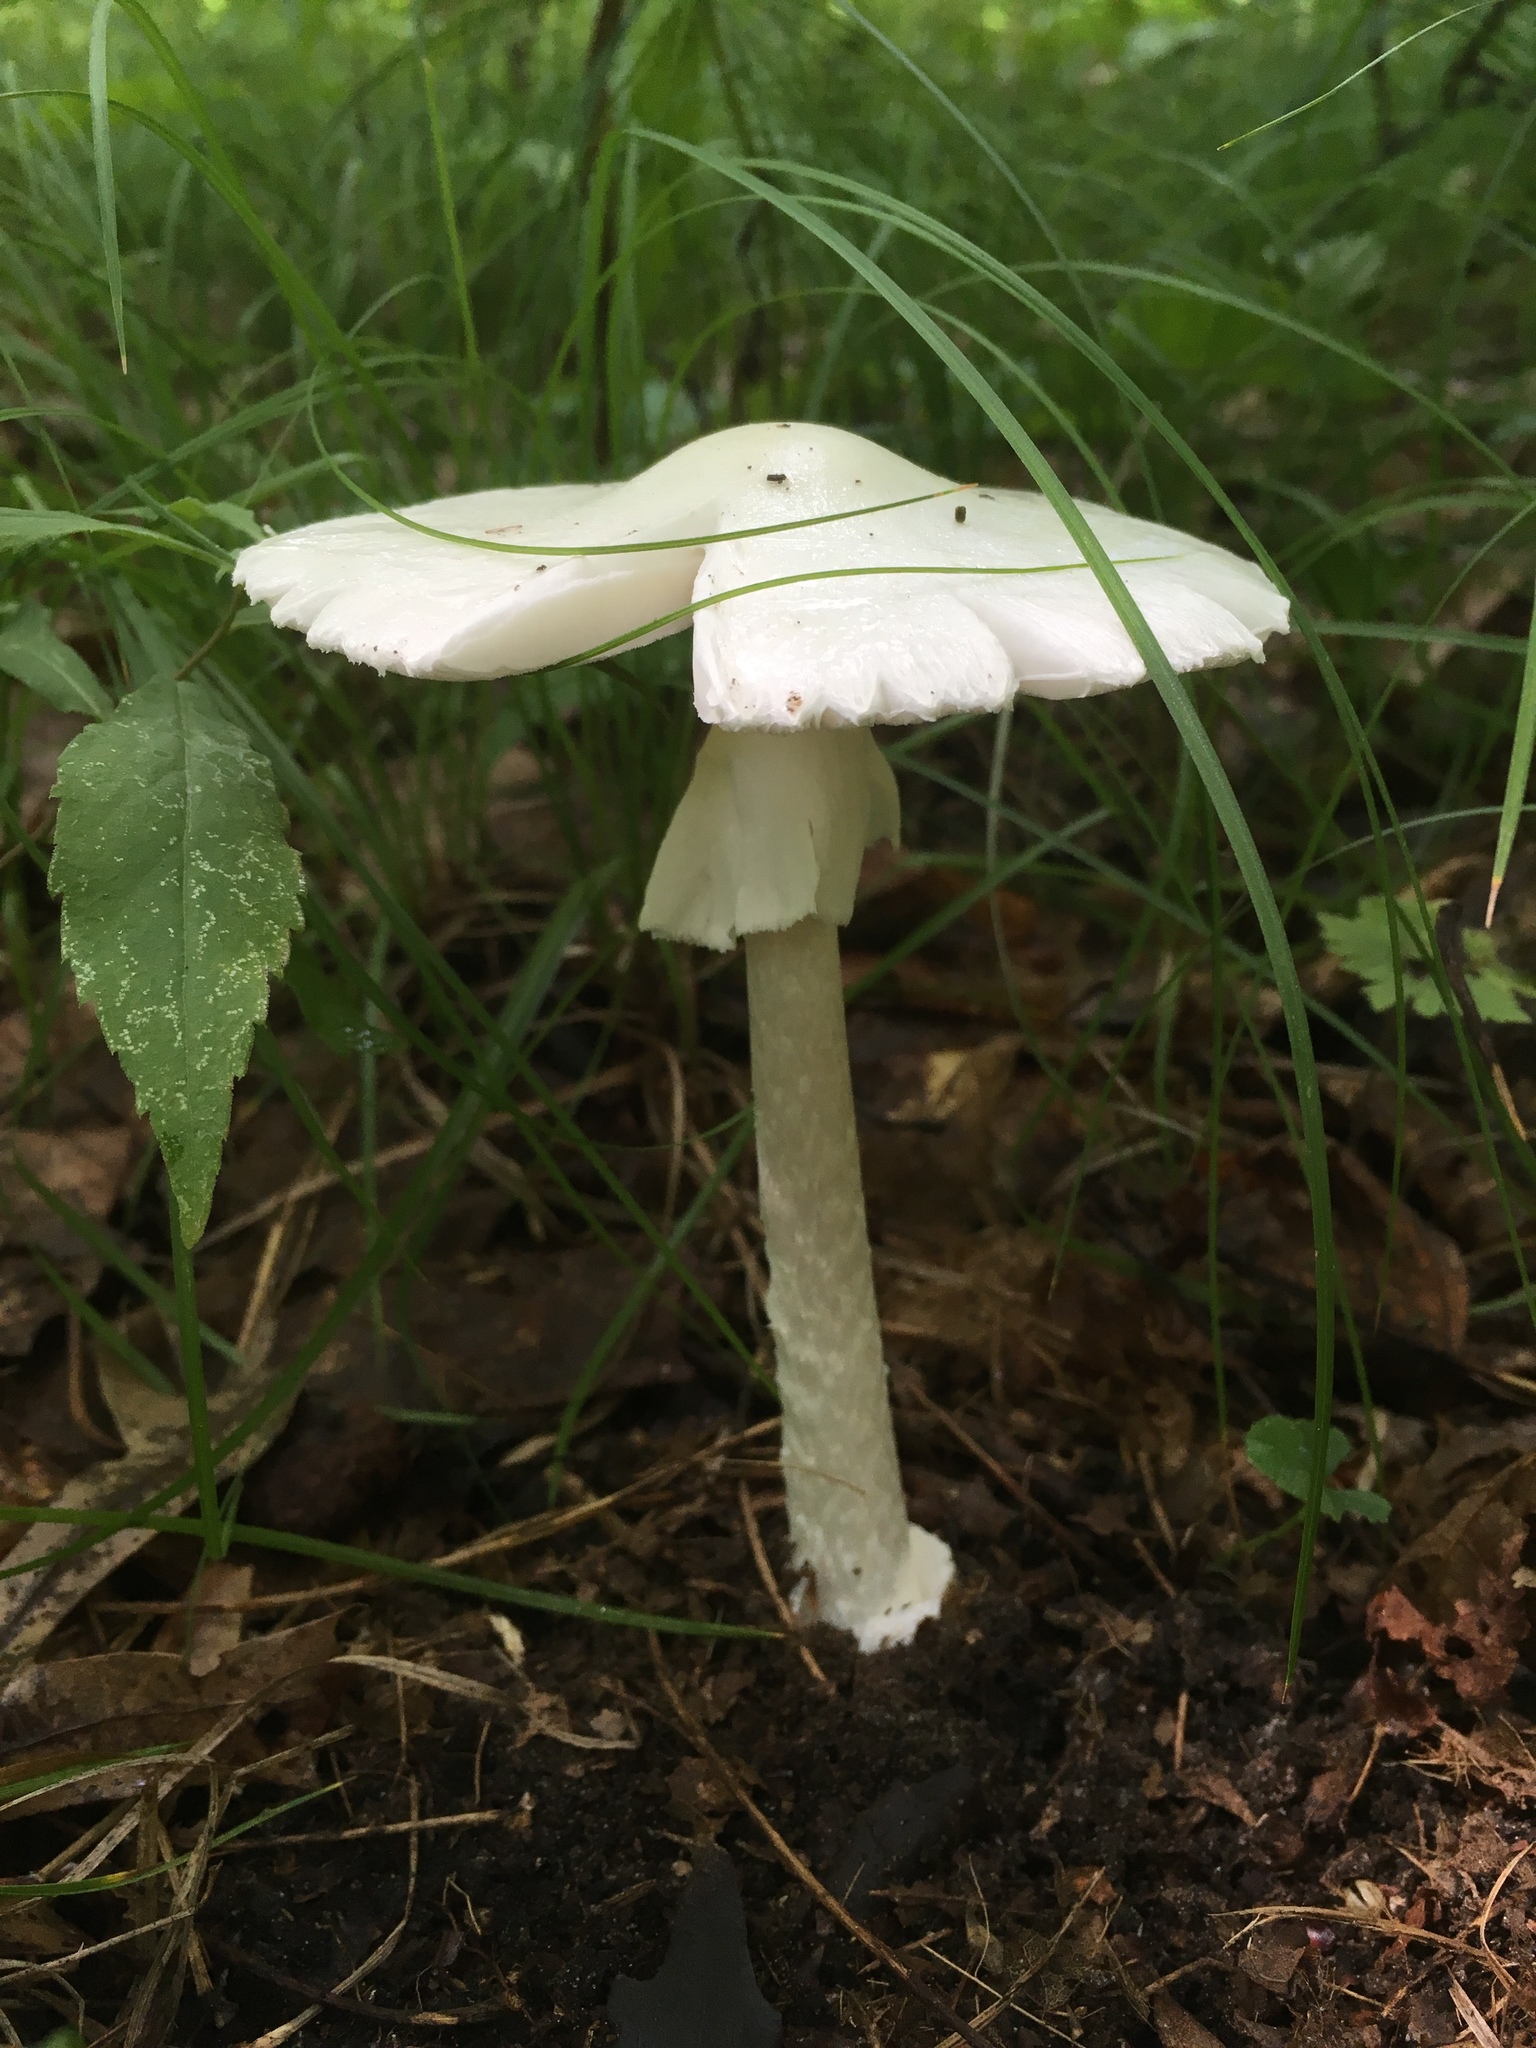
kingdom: Fungi
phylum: Basidiomycota
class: Agaricomycetes
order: Agaricales
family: Amanitaceae
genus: Amanita
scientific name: Amanita bisporigera
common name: Eastern north american destroying angel
